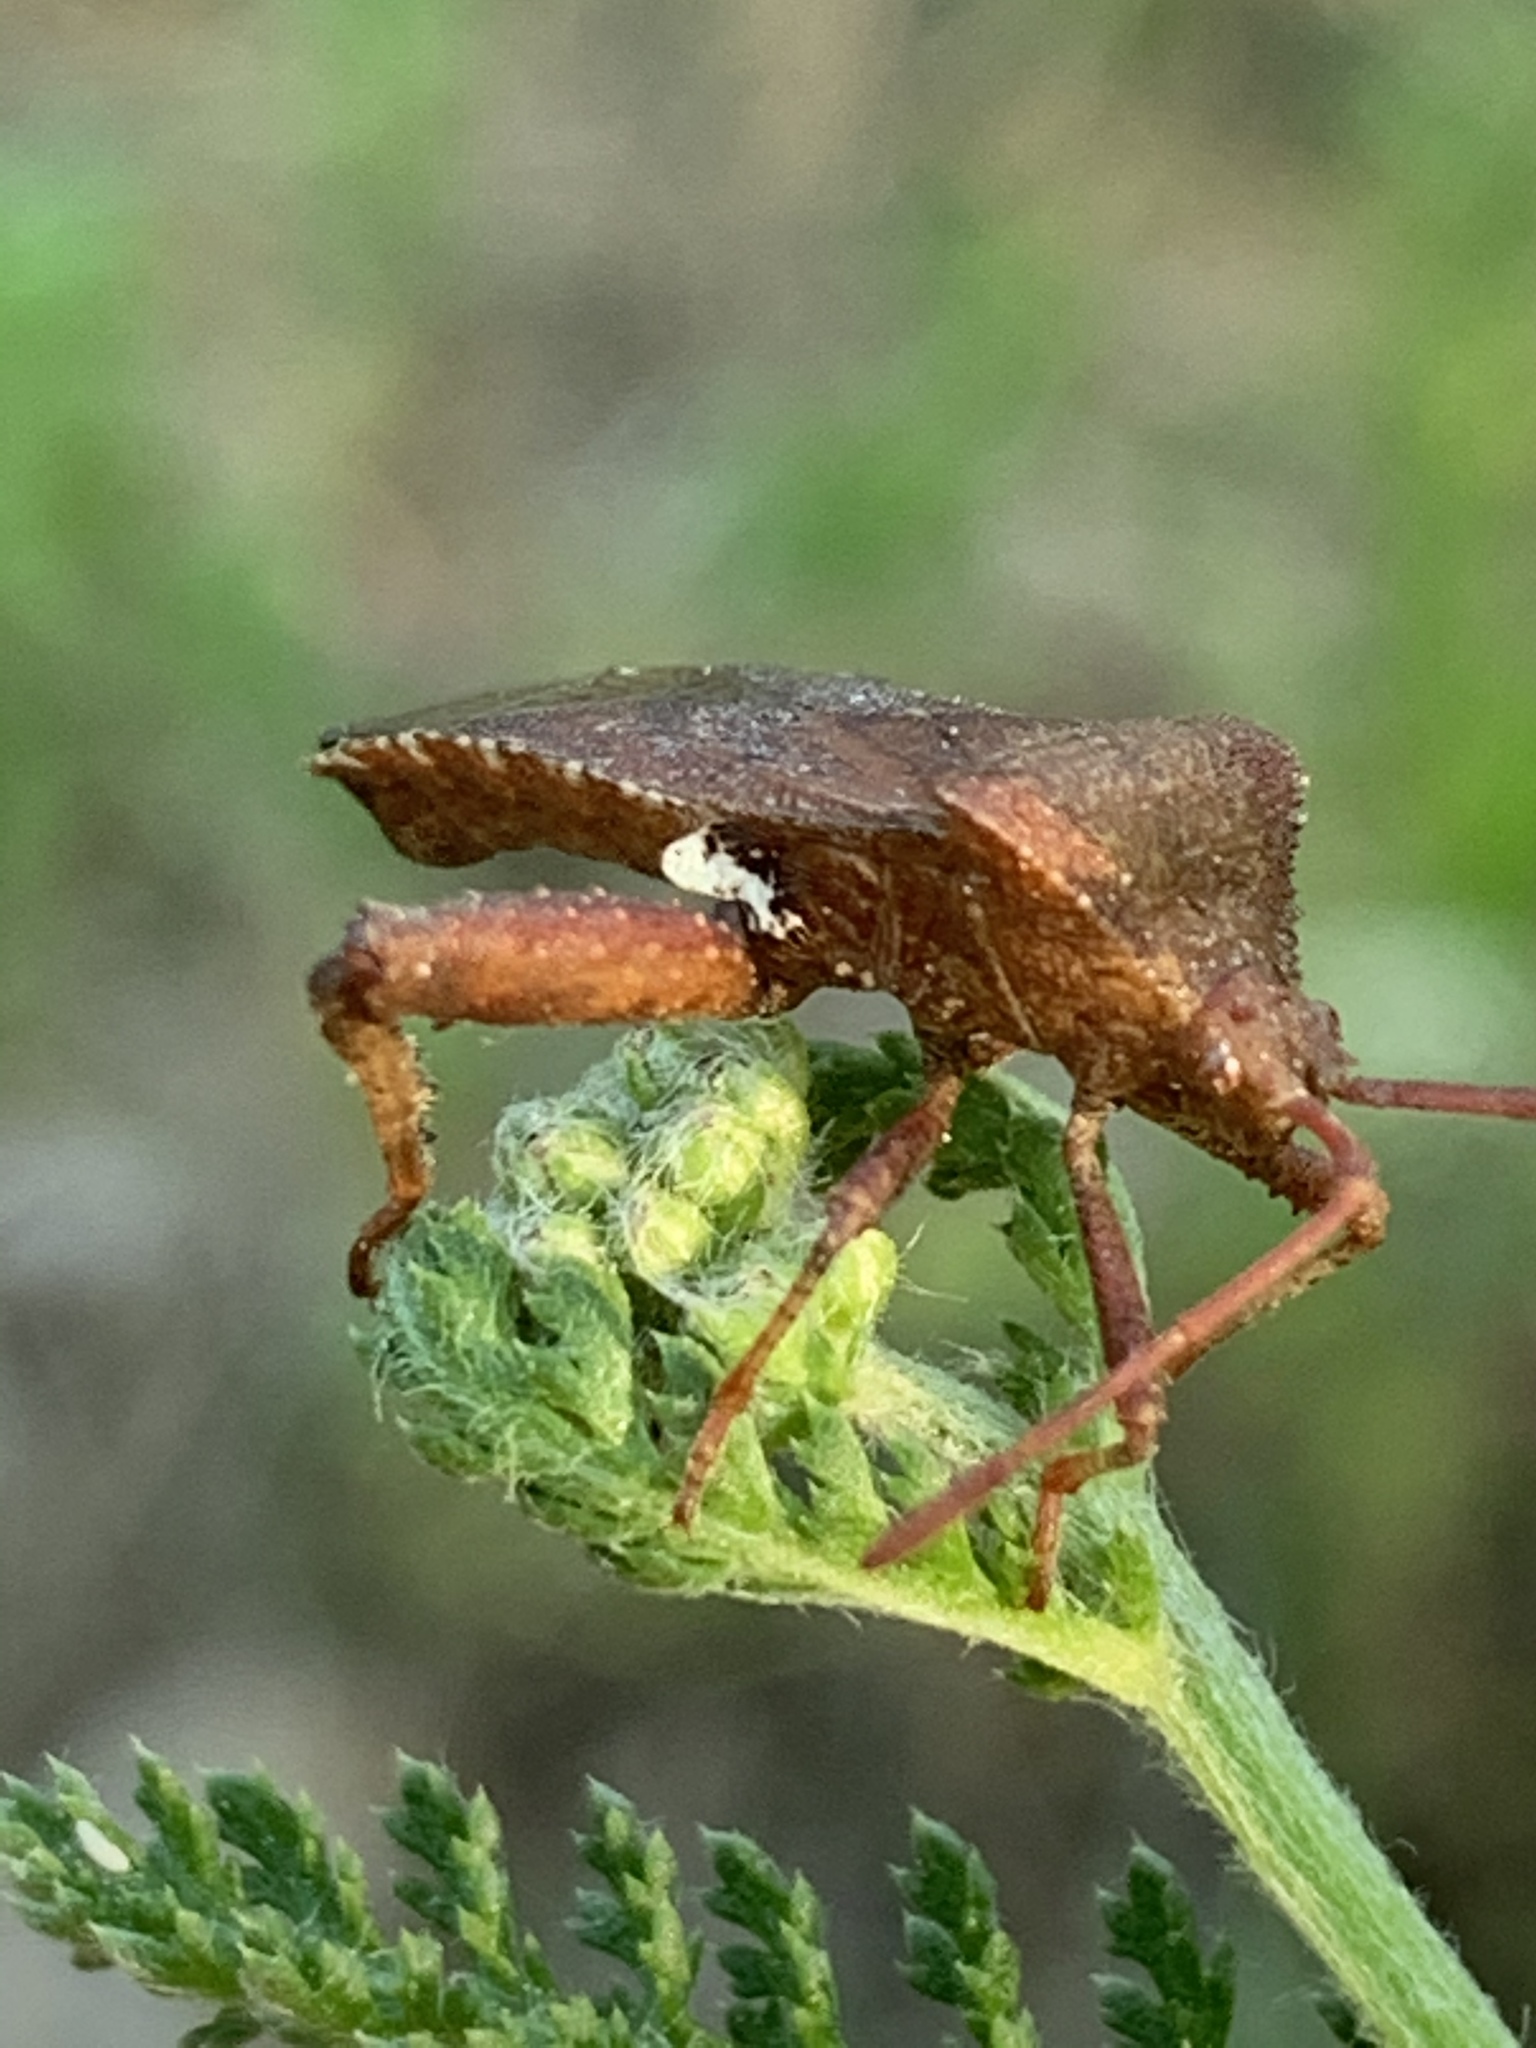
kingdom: Animalia
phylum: Arthropoda
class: Insecta
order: Hemiptera
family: Coreidae
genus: Euthochtha
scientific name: Euthochtha galeator
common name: Helmeted squash bug
